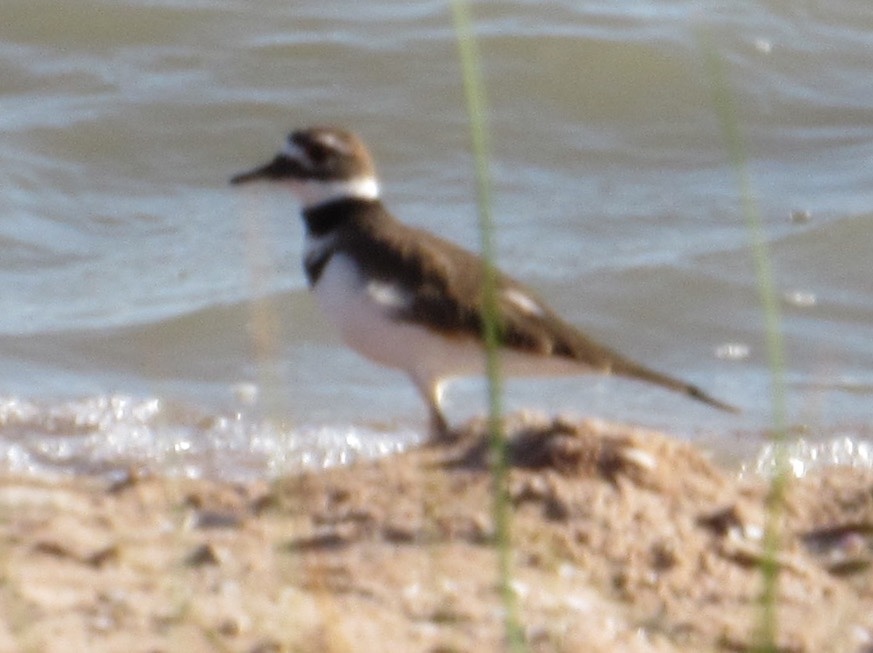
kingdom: Animalia
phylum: Chordata
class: Aves
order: Charadriiformes
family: Charadriidae
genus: Charadrius
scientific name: Charadrius vociferus
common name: Killdeer
